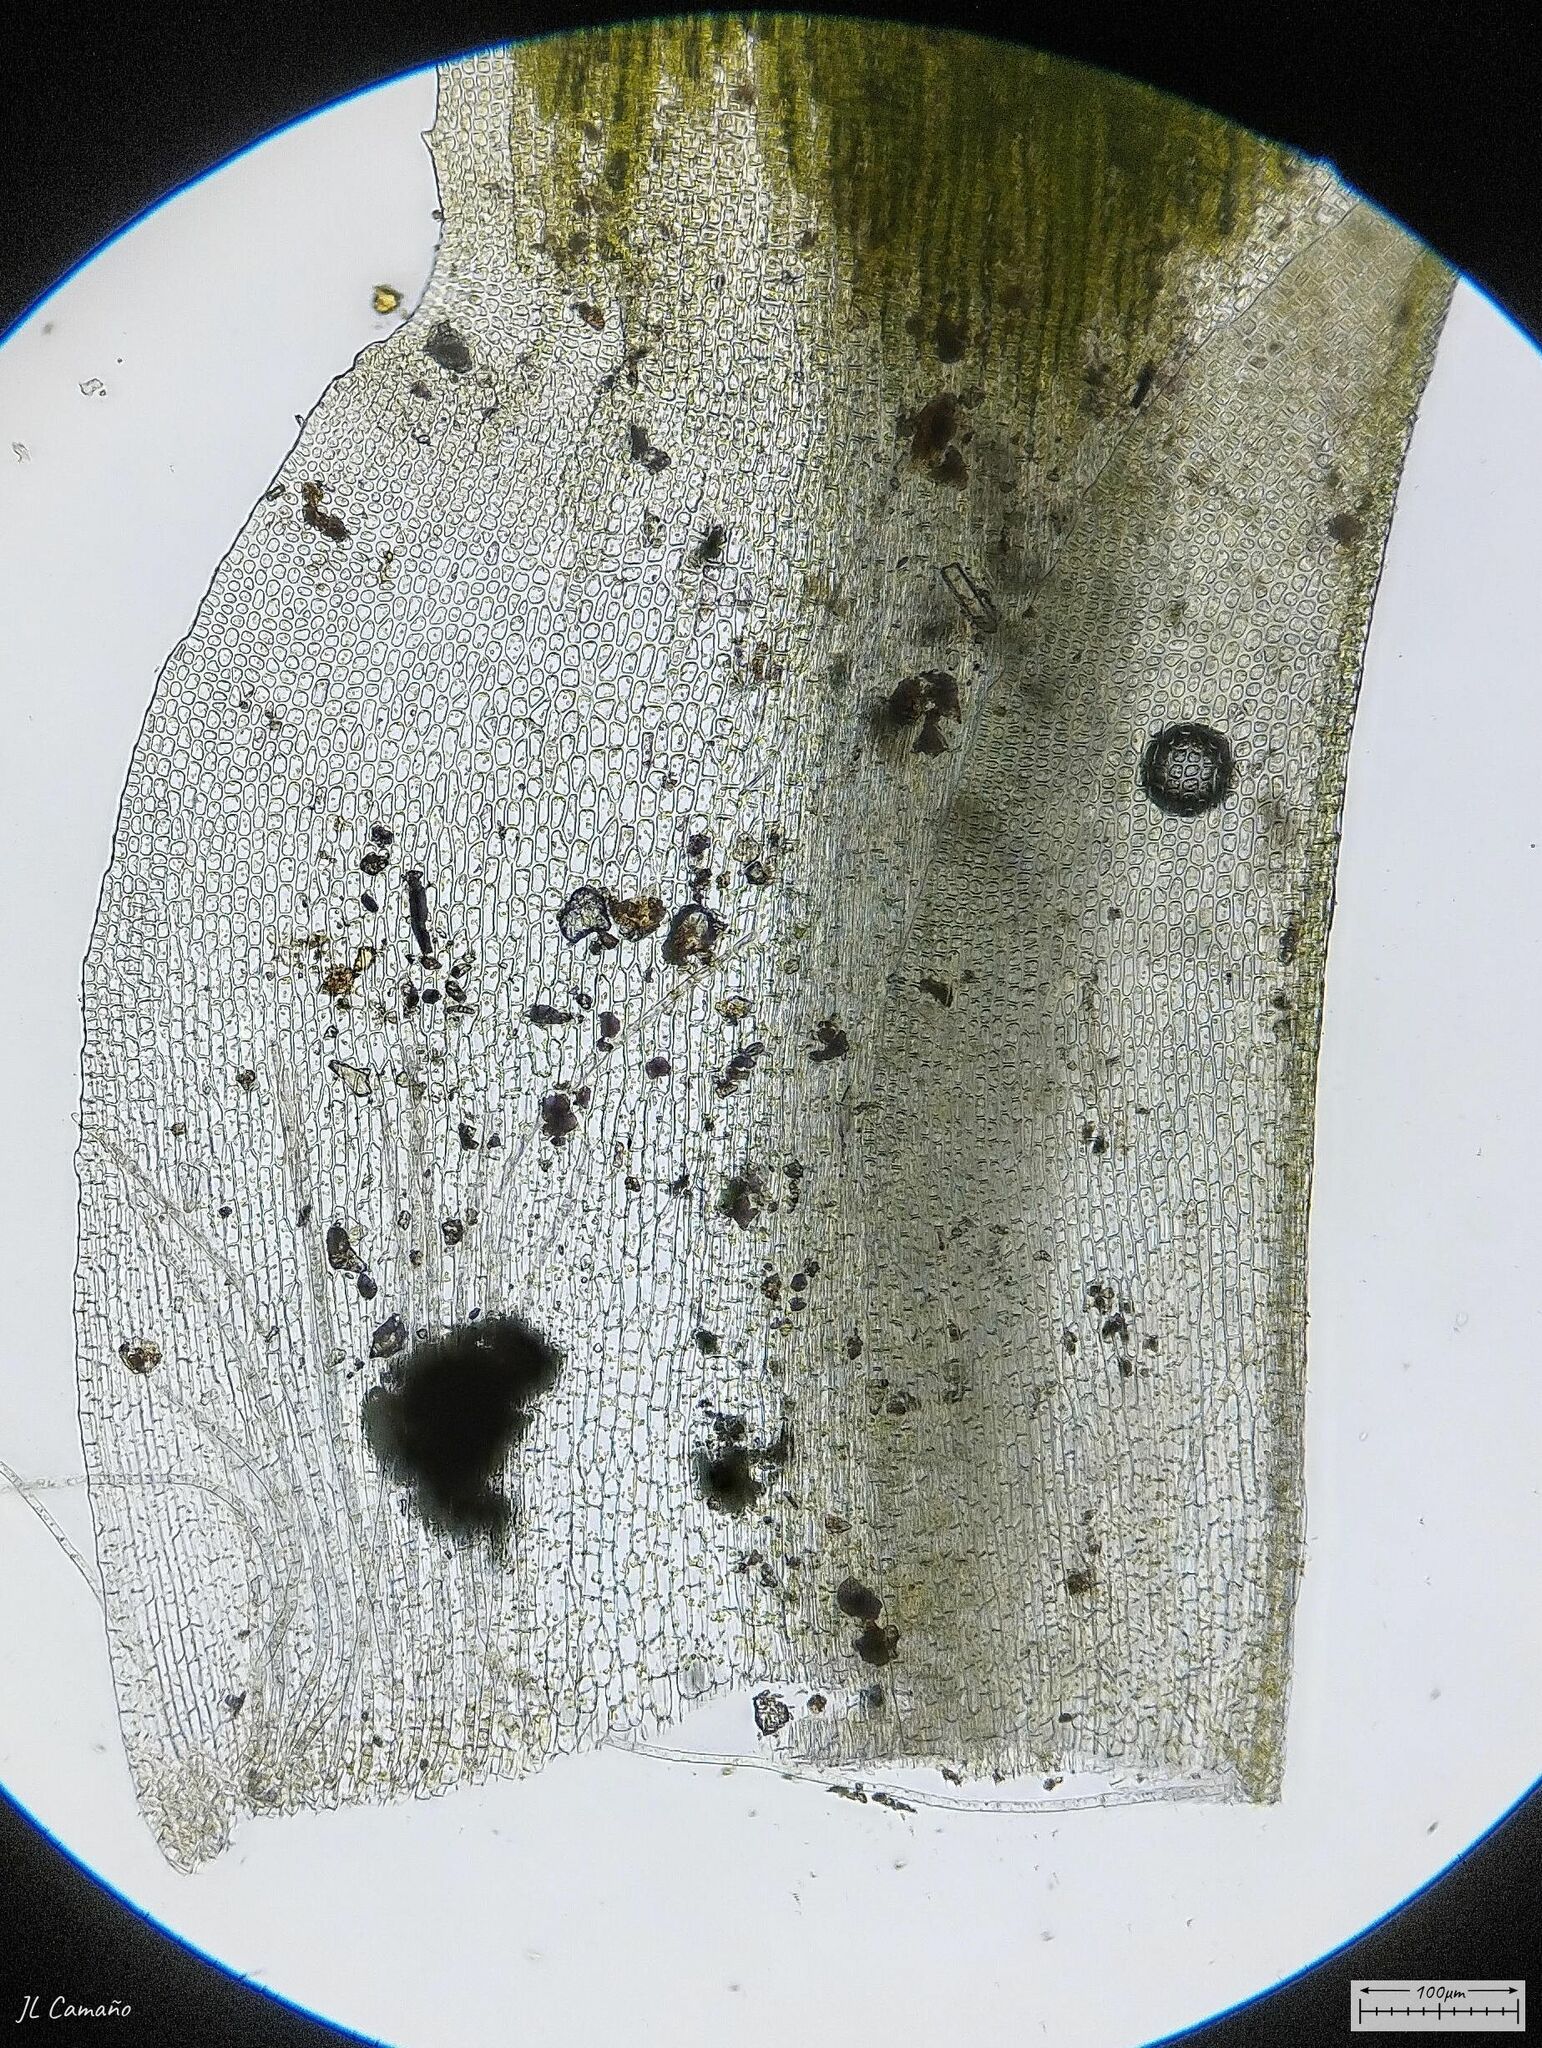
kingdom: Plantae
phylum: Bryophyta
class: Polytrichopsida
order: Polytrichales
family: Polytrichaceae
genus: Pogonatum
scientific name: Pogonatum aloides
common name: Aloe haircap
